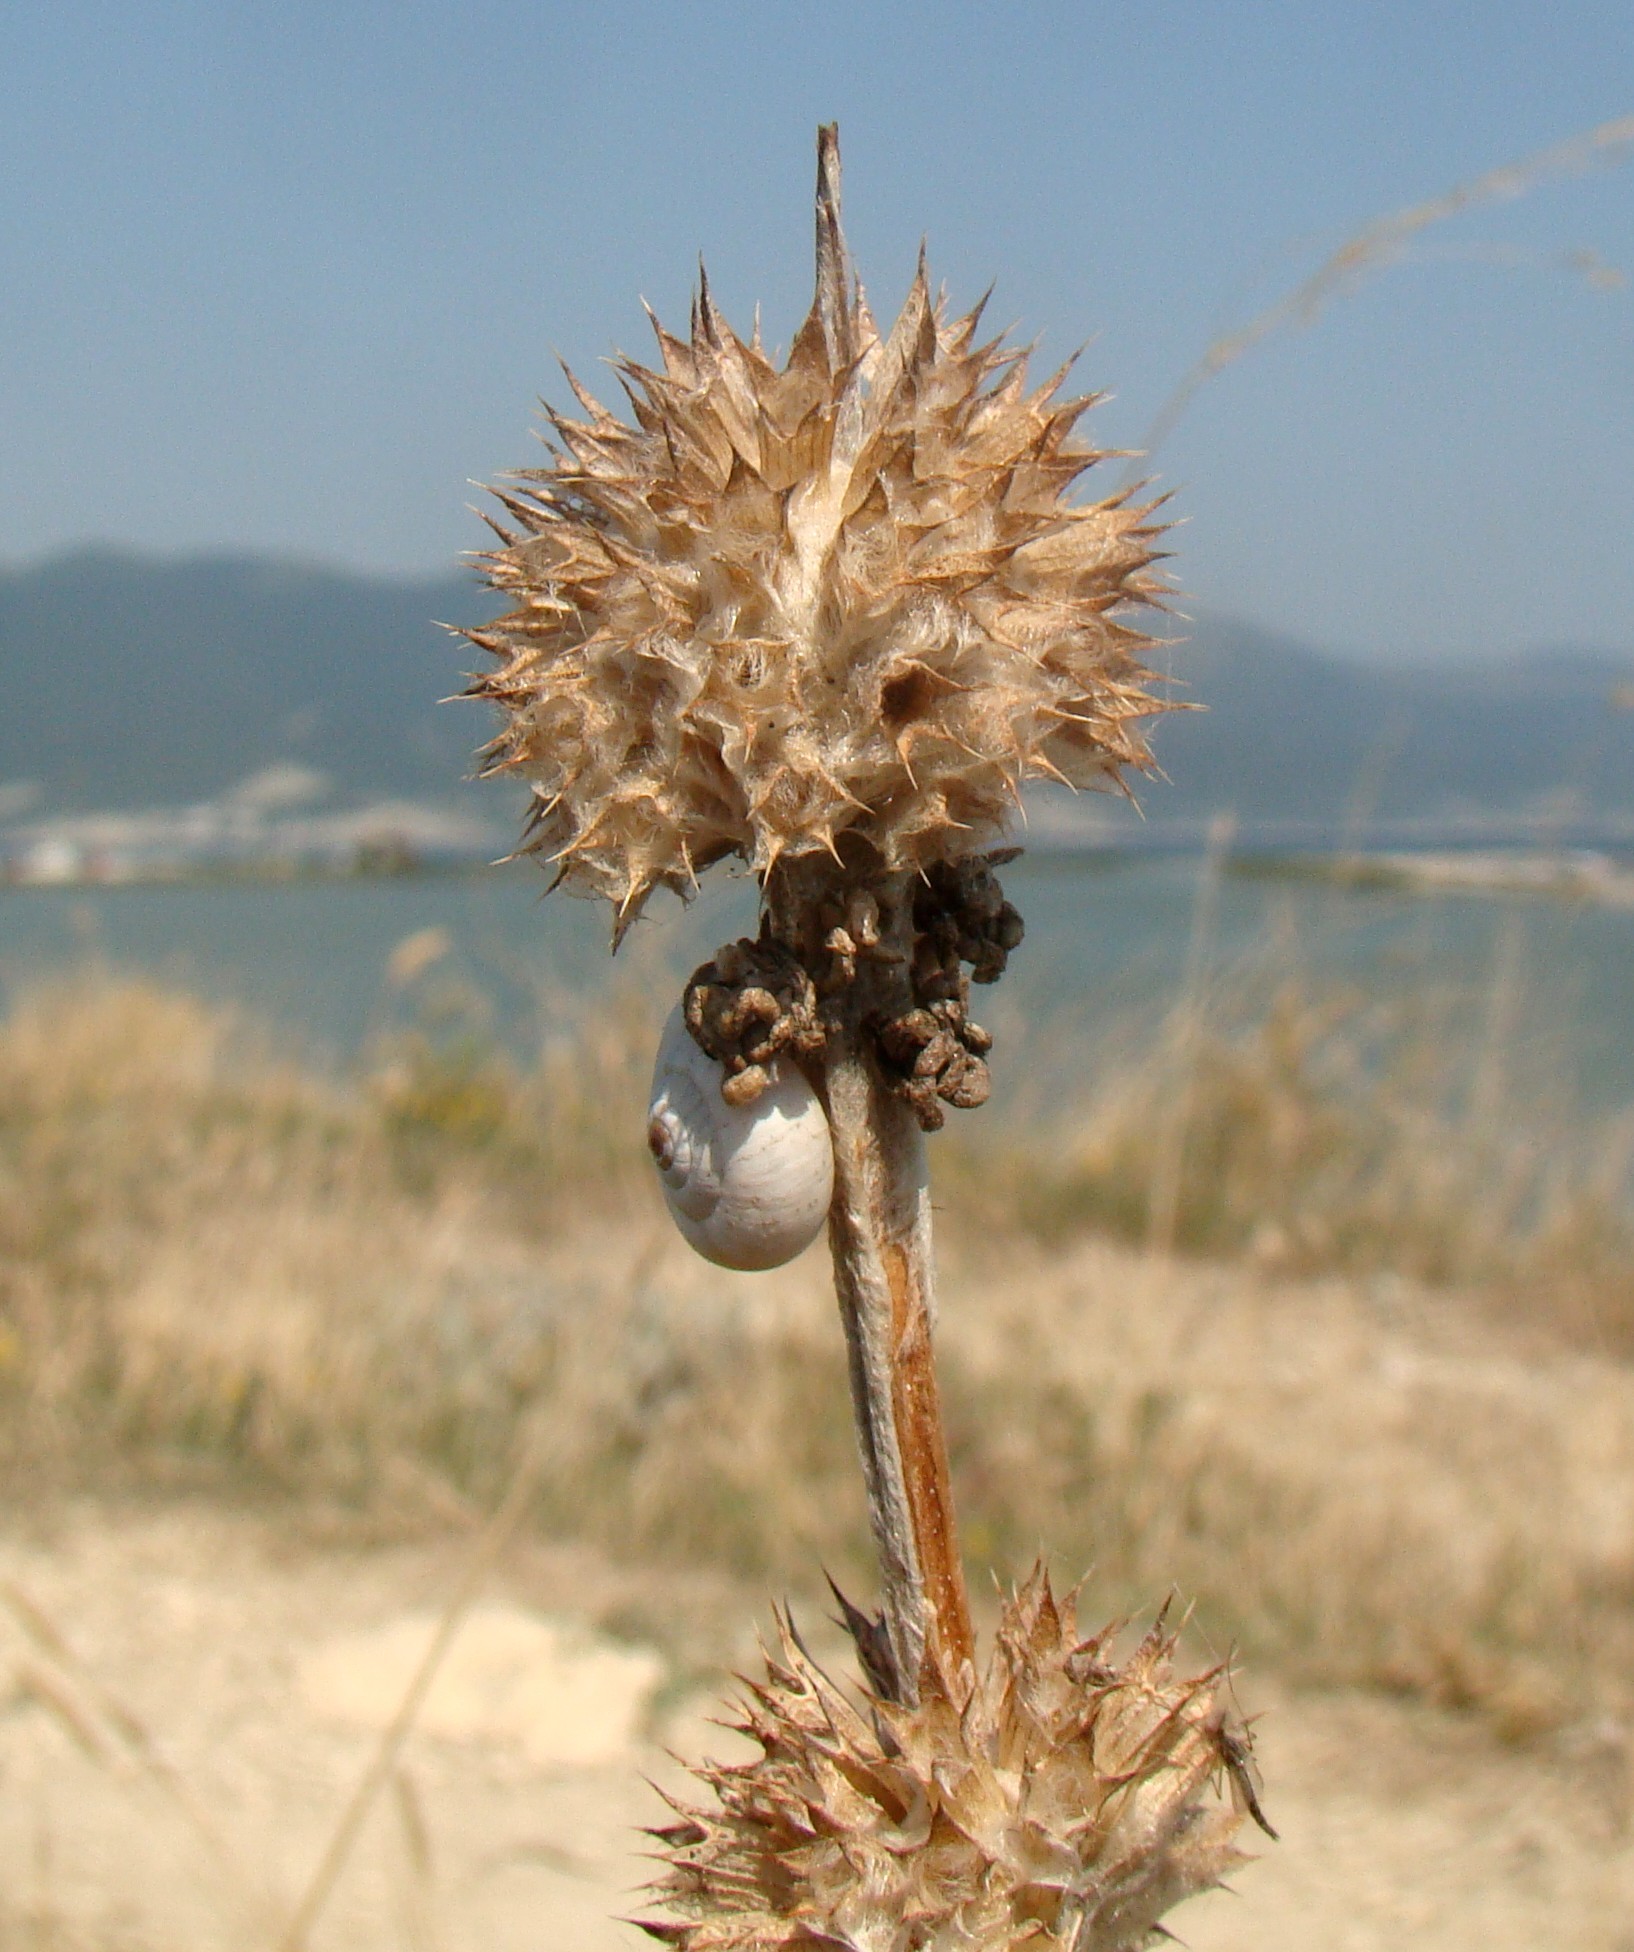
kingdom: Plantae
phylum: Tracheophyta
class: Magnoliopsida
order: Lamiales
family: Lamiaceae
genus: Stachys
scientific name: Stachys cretica
